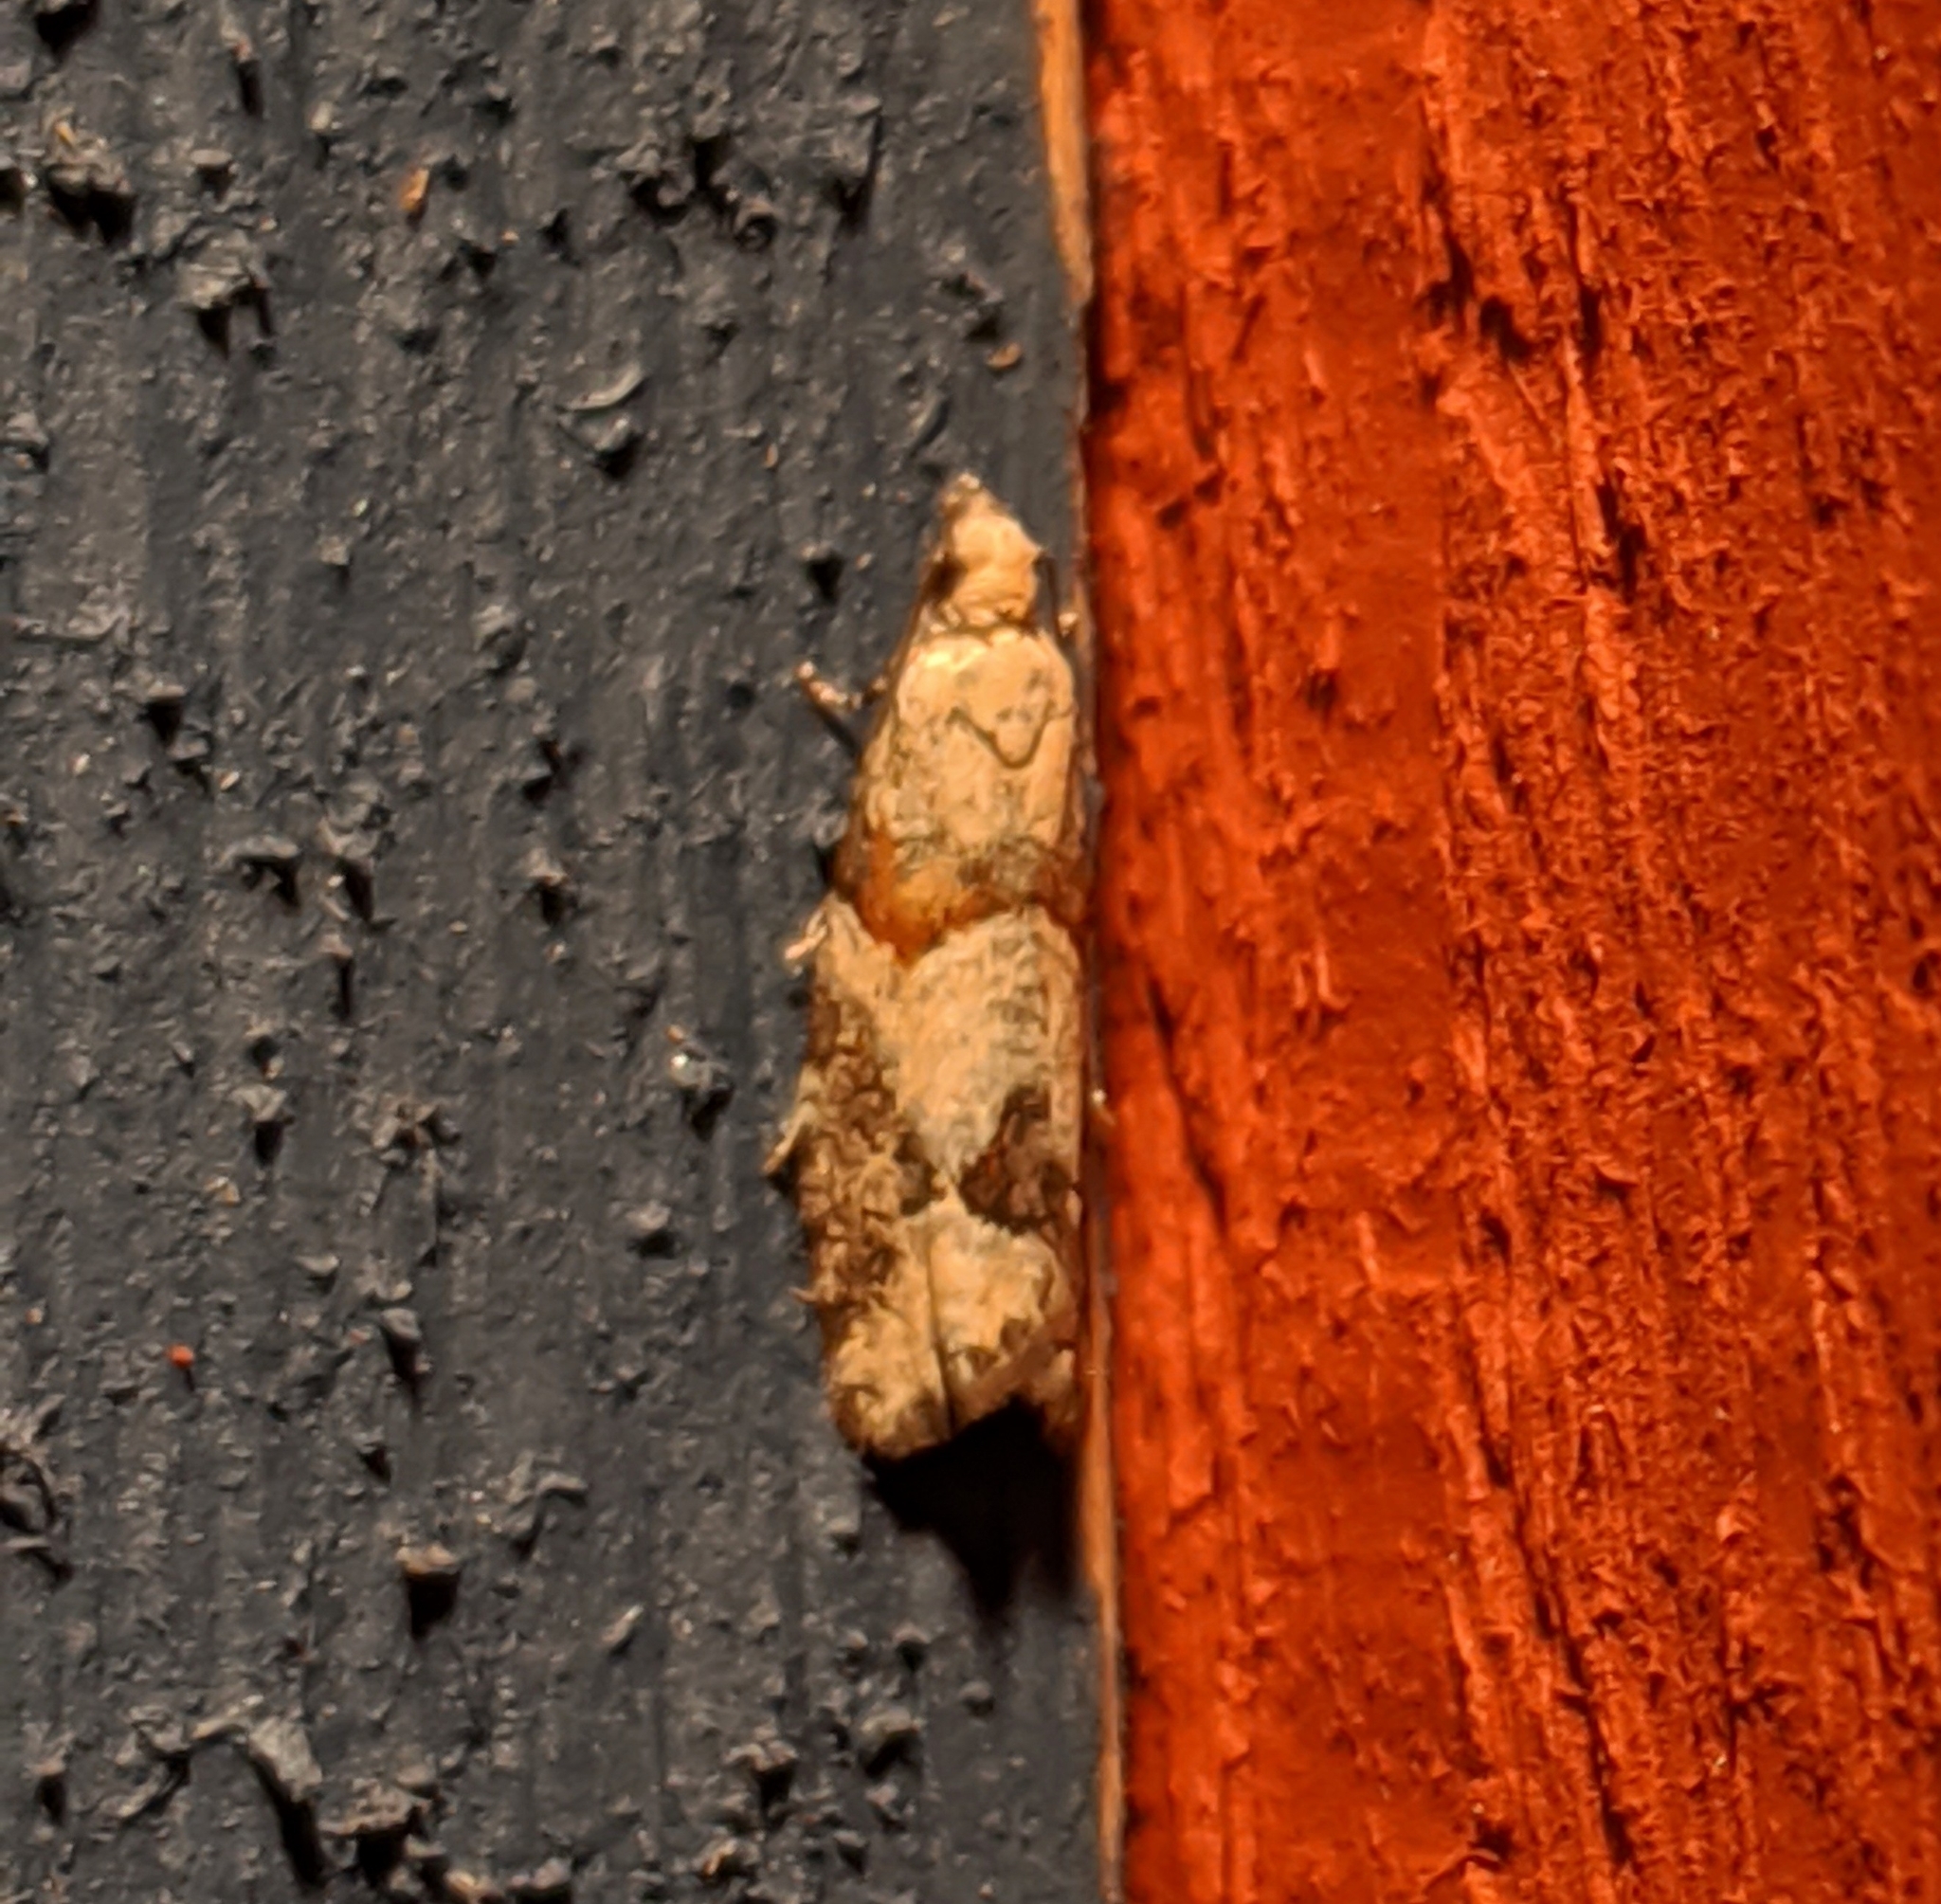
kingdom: Animalia
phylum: Arthropoda
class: Insecta
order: Lepidoptera
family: Tortricidae
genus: Epinotia
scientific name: Epinotia radicana
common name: Red-striped needleworm moth
